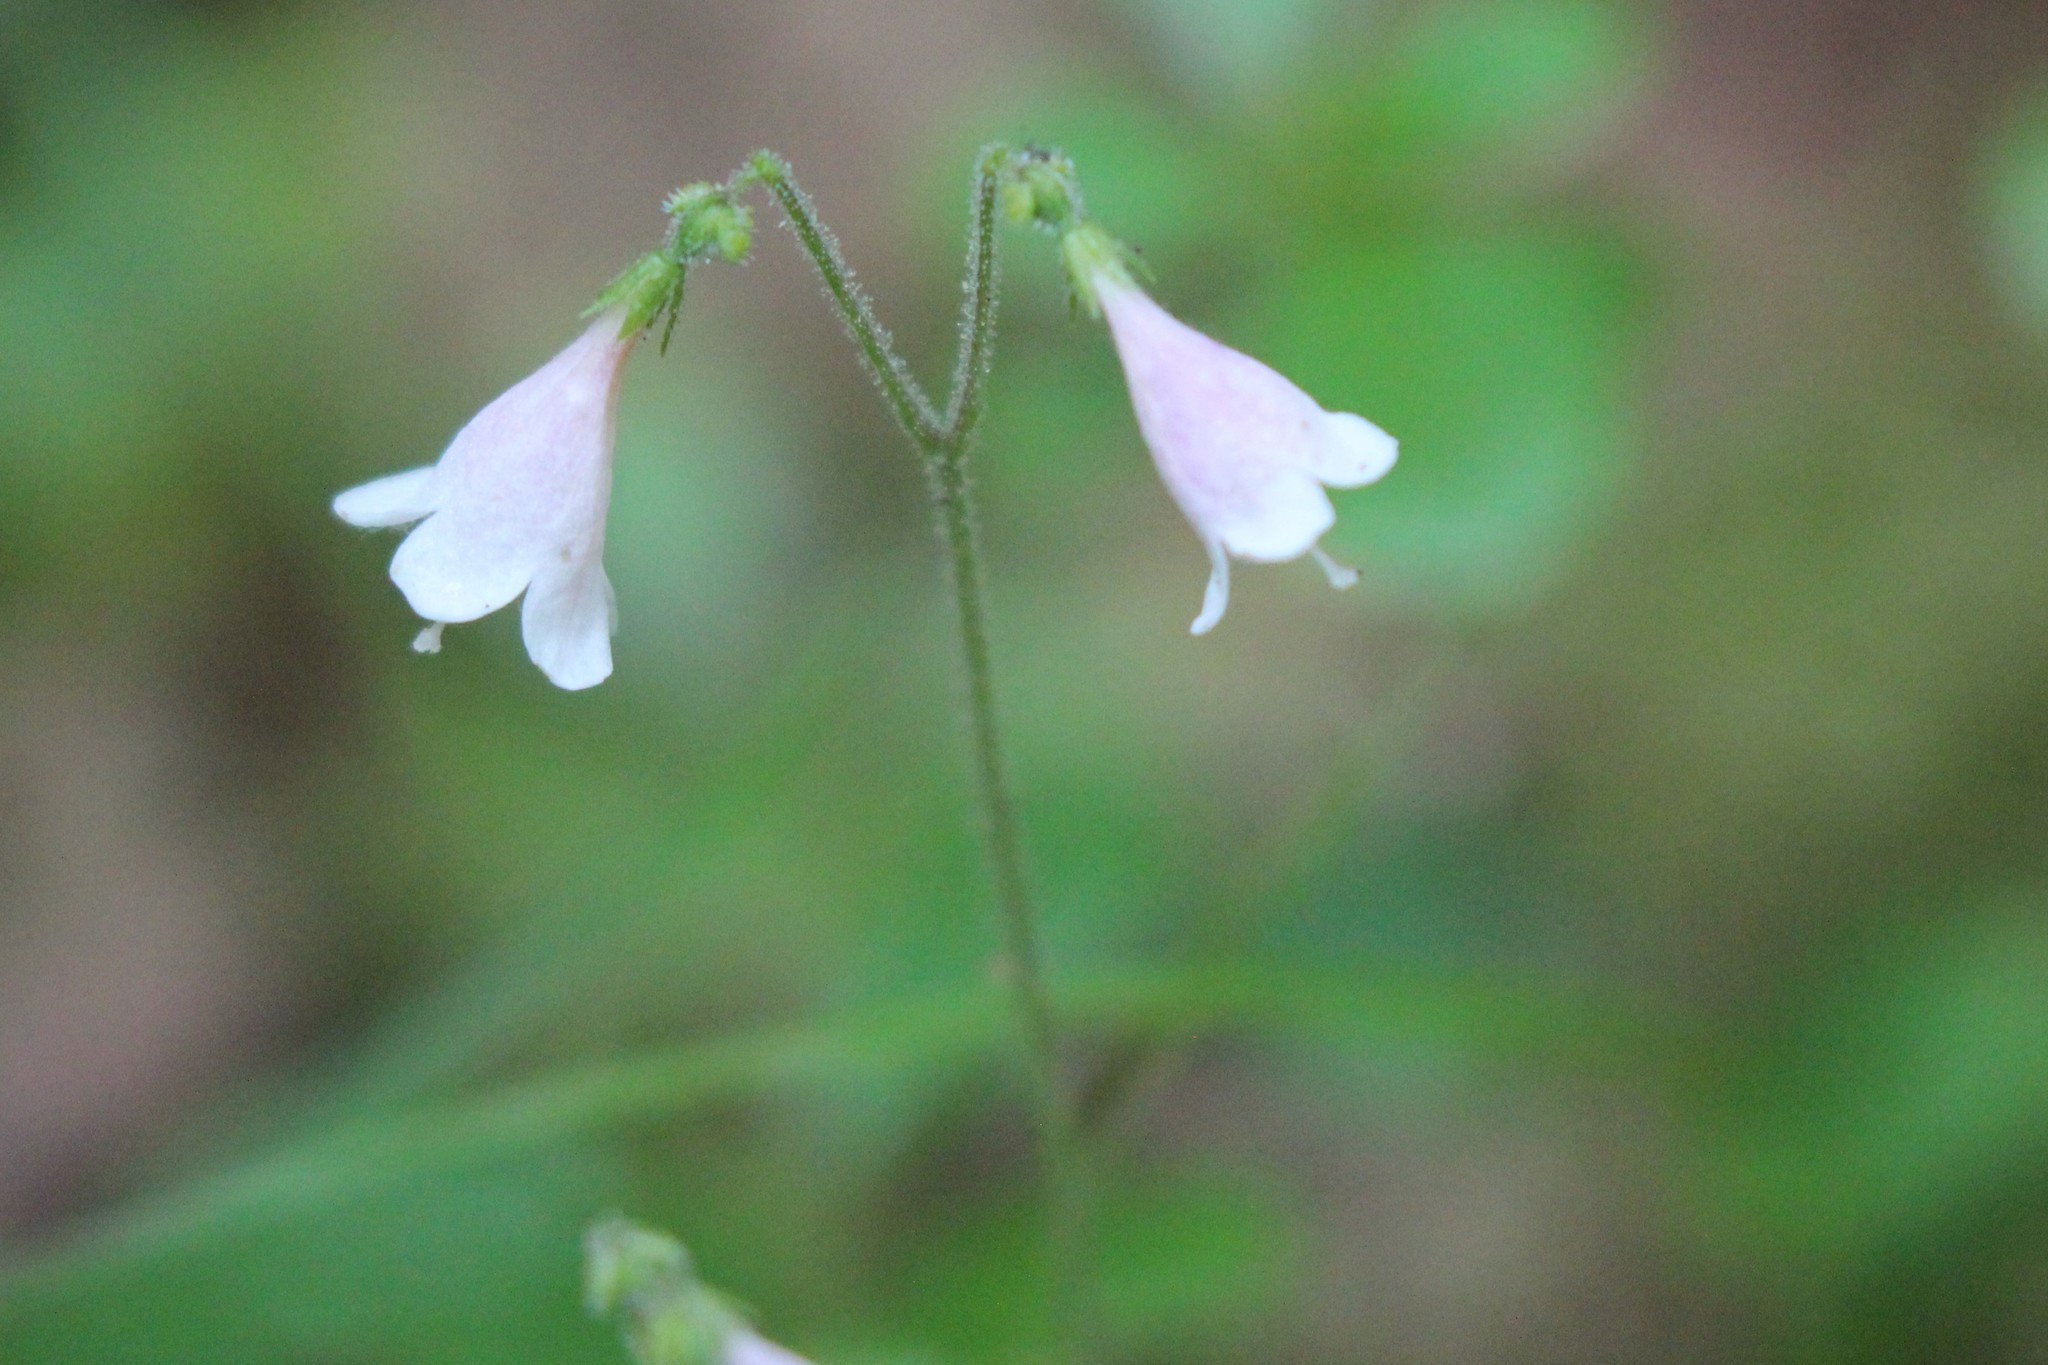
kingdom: Plantae
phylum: Tracheophyta
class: Magnoliopsida
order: Dipsacales
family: Caprifoliaceae
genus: Linnaea
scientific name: Linnaea borealis
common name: Twinflower
